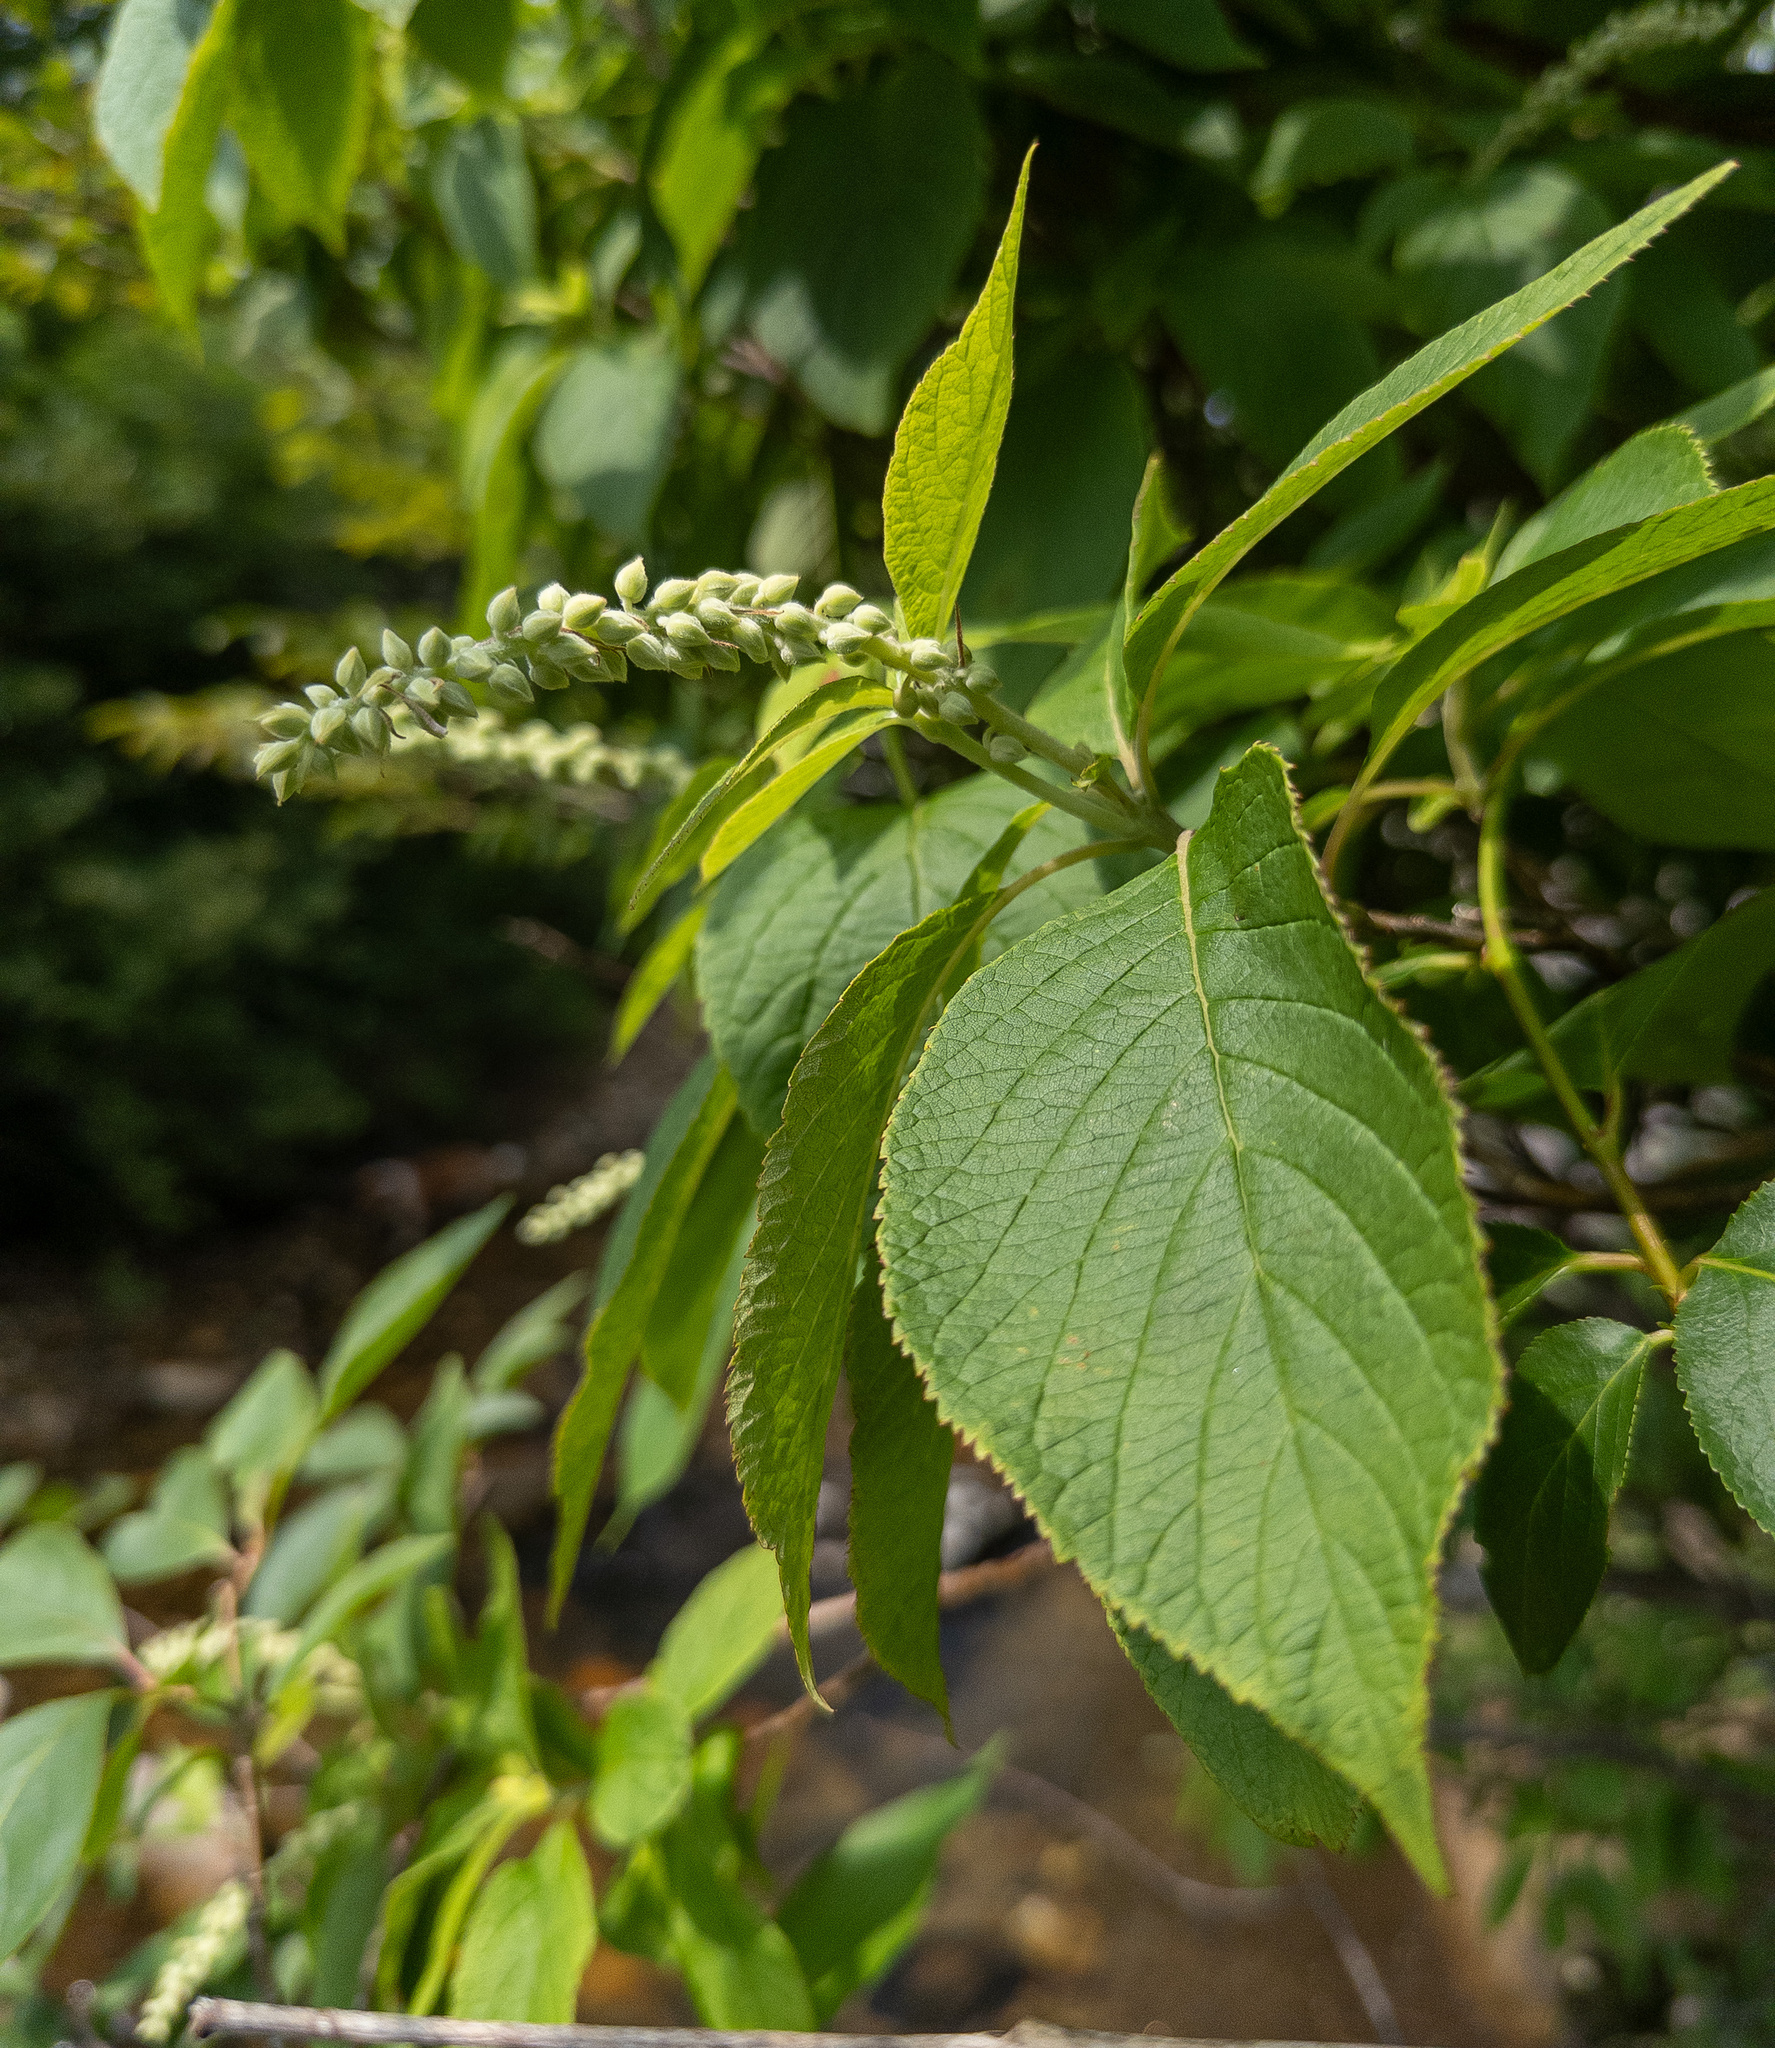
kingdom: Plantae
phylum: Tracheophyta
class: Magnoliopsida
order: Ericales
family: Clethraceae
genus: Clethra
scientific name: Clethra acuminata
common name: Mountain sweet pepperbush
